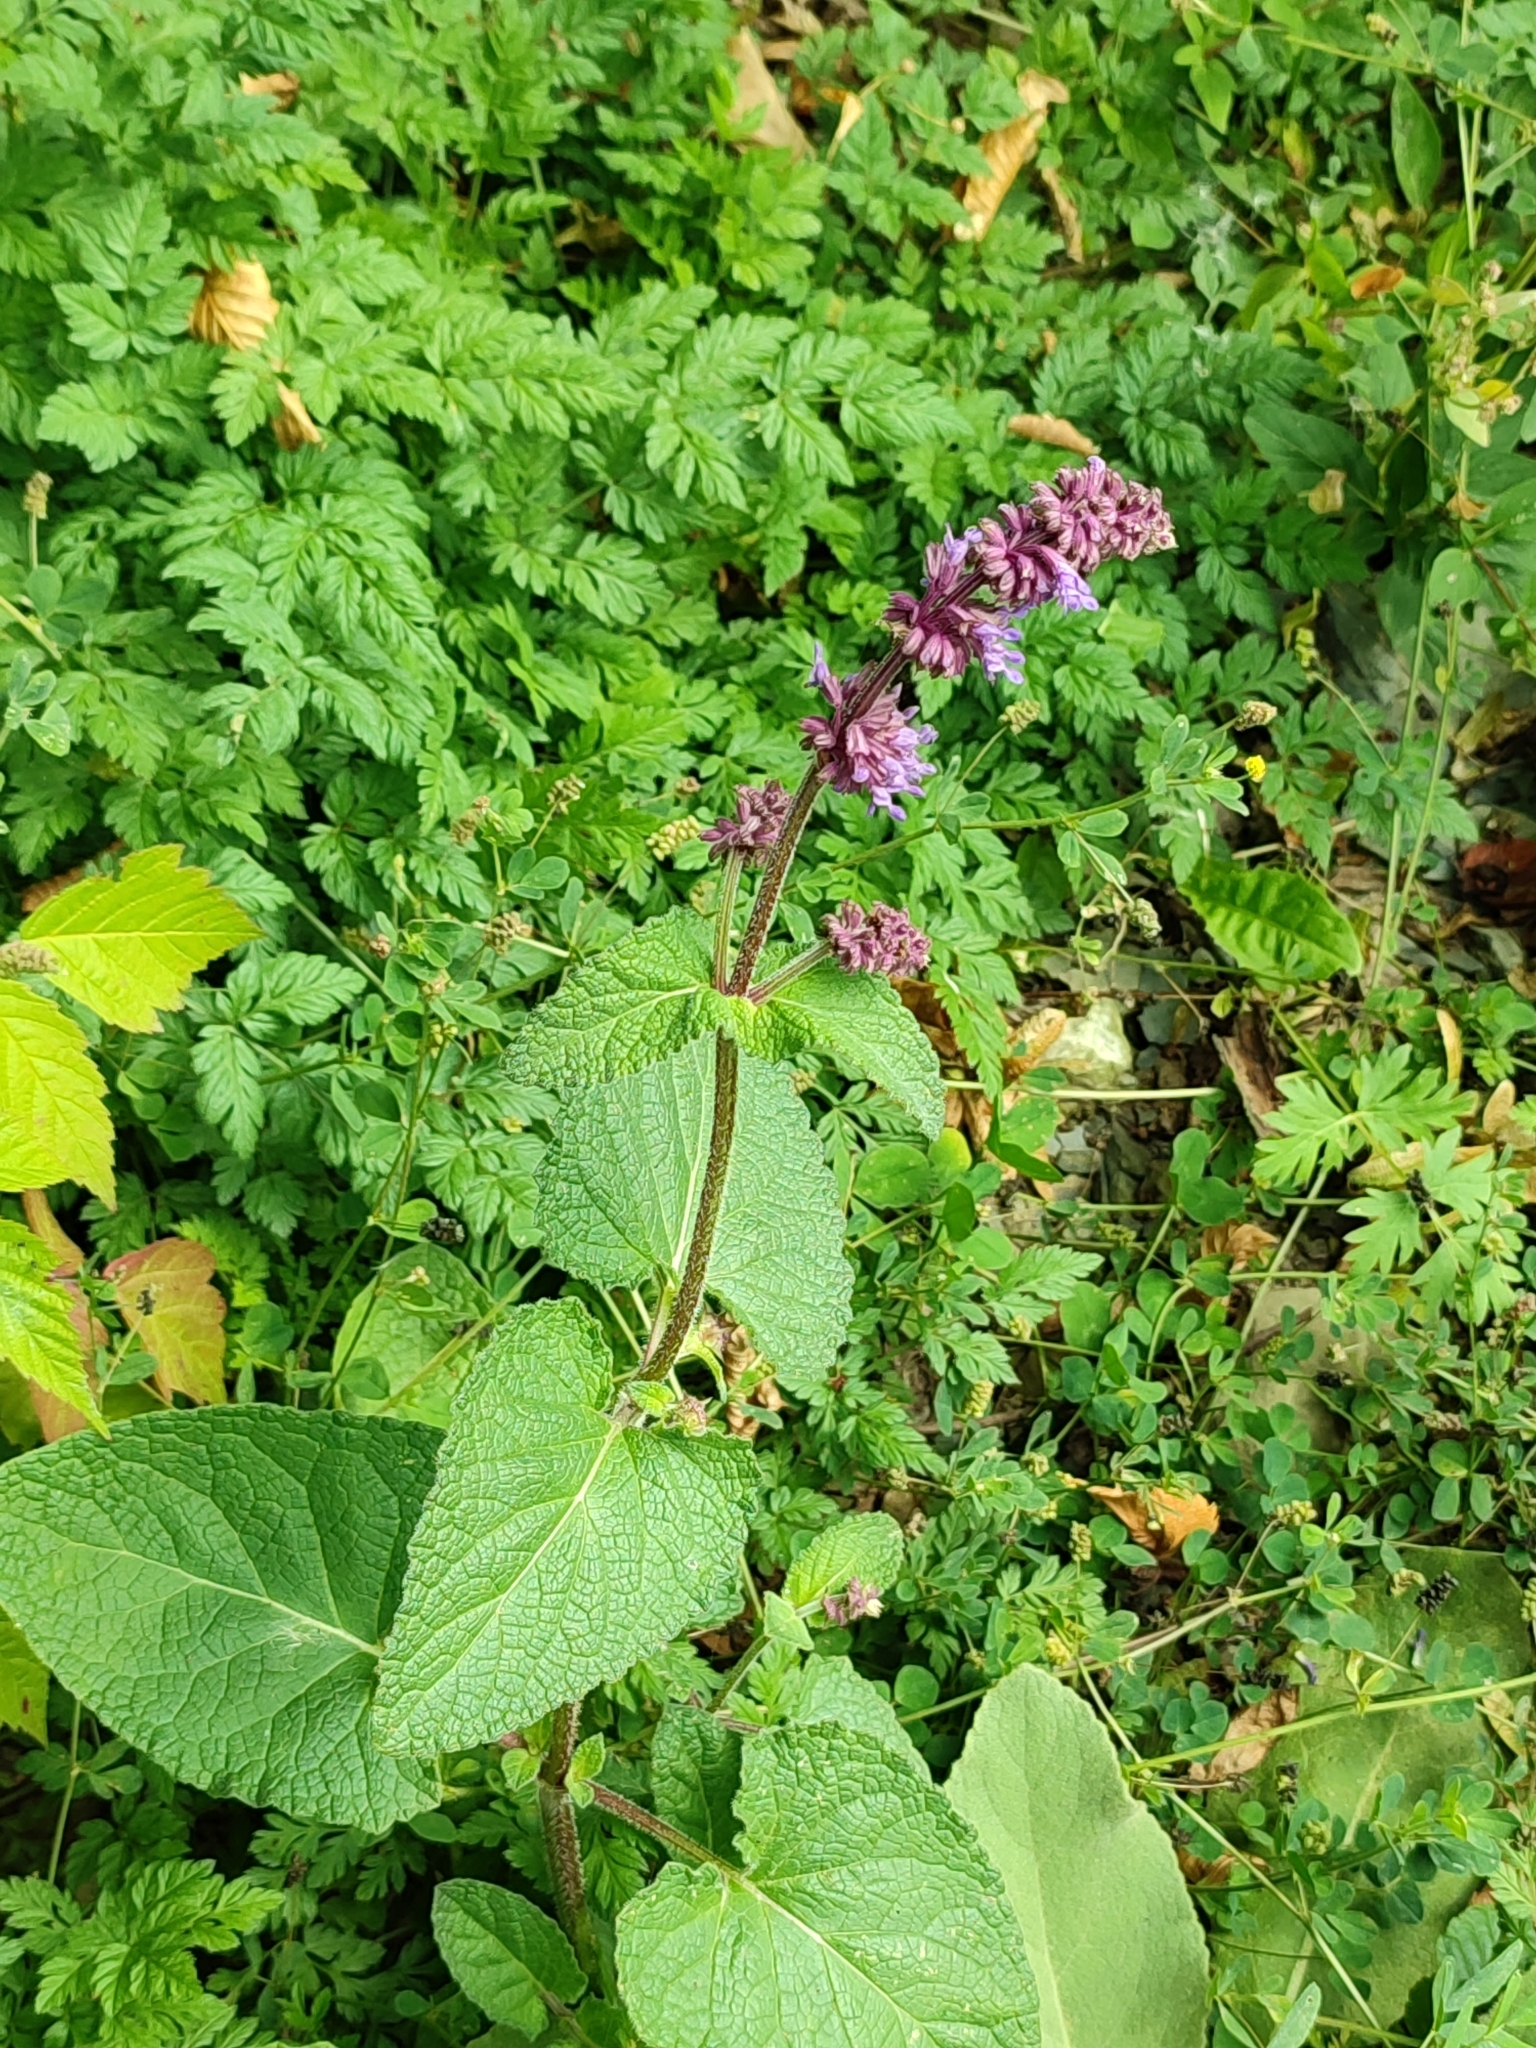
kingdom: Plantae
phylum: Tracheophyta
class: Magnoliopsida
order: Lamiales
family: Lamiaceae
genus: Salvia
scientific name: Salvia verticillata
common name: Whorled clary
